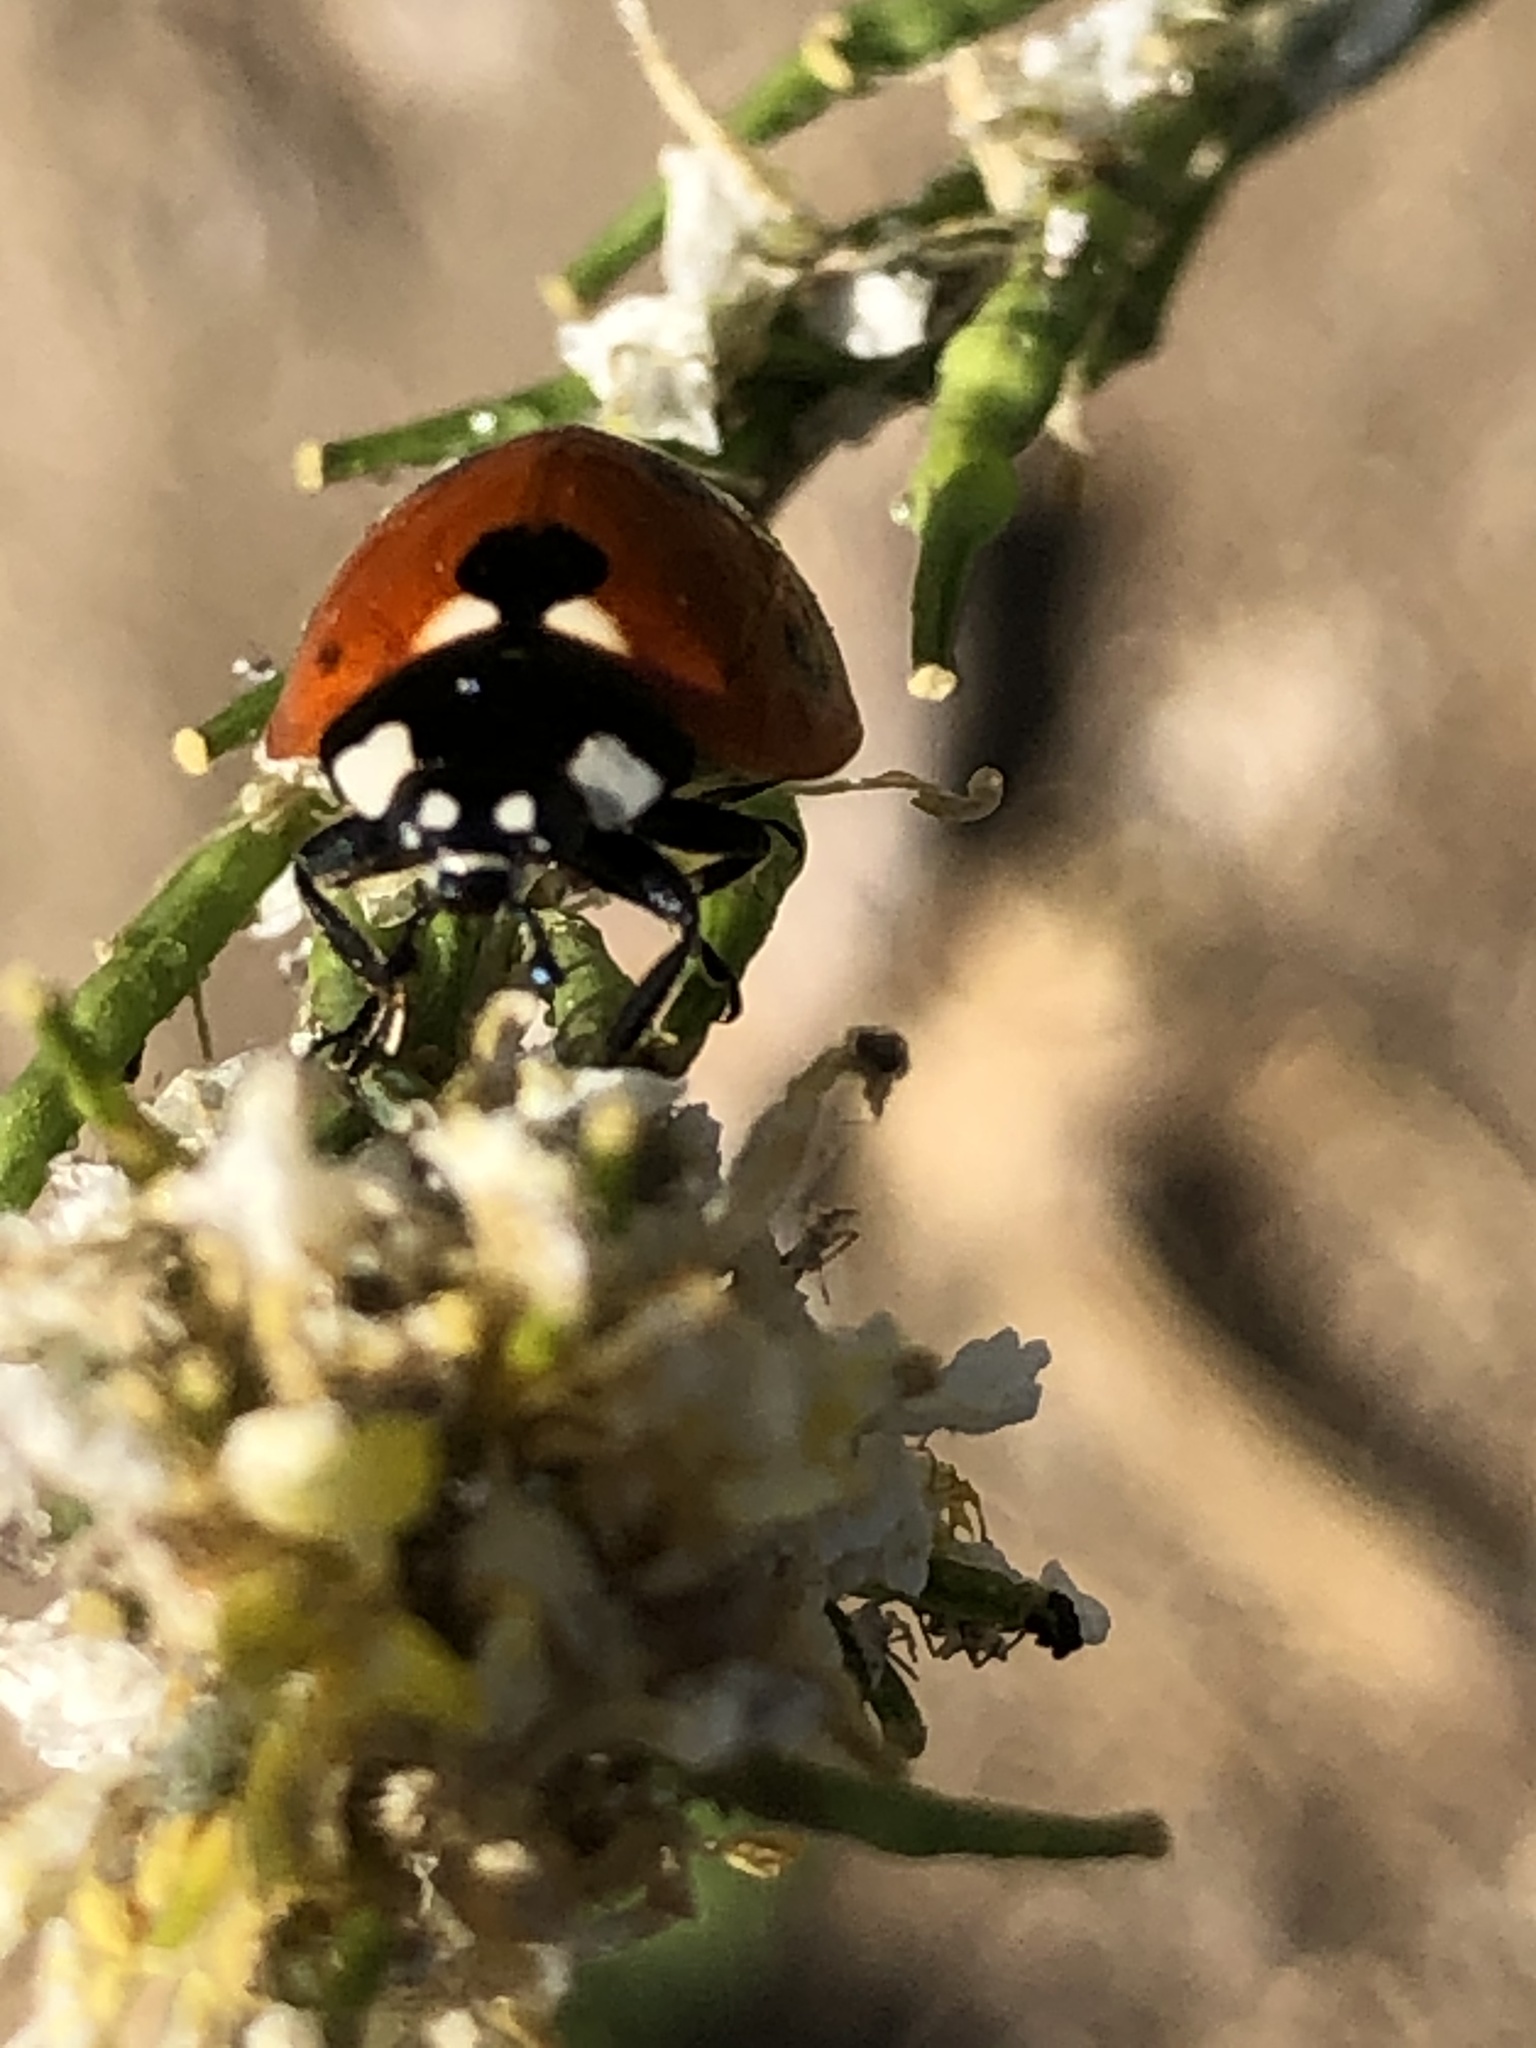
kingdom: Animalia
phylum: Arthropoda
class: Insecta
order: Coleoptera
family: Coccinellidae
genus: Coccinella
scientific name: Coccinella septempunctata
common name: Sevenspotted lady beetle
